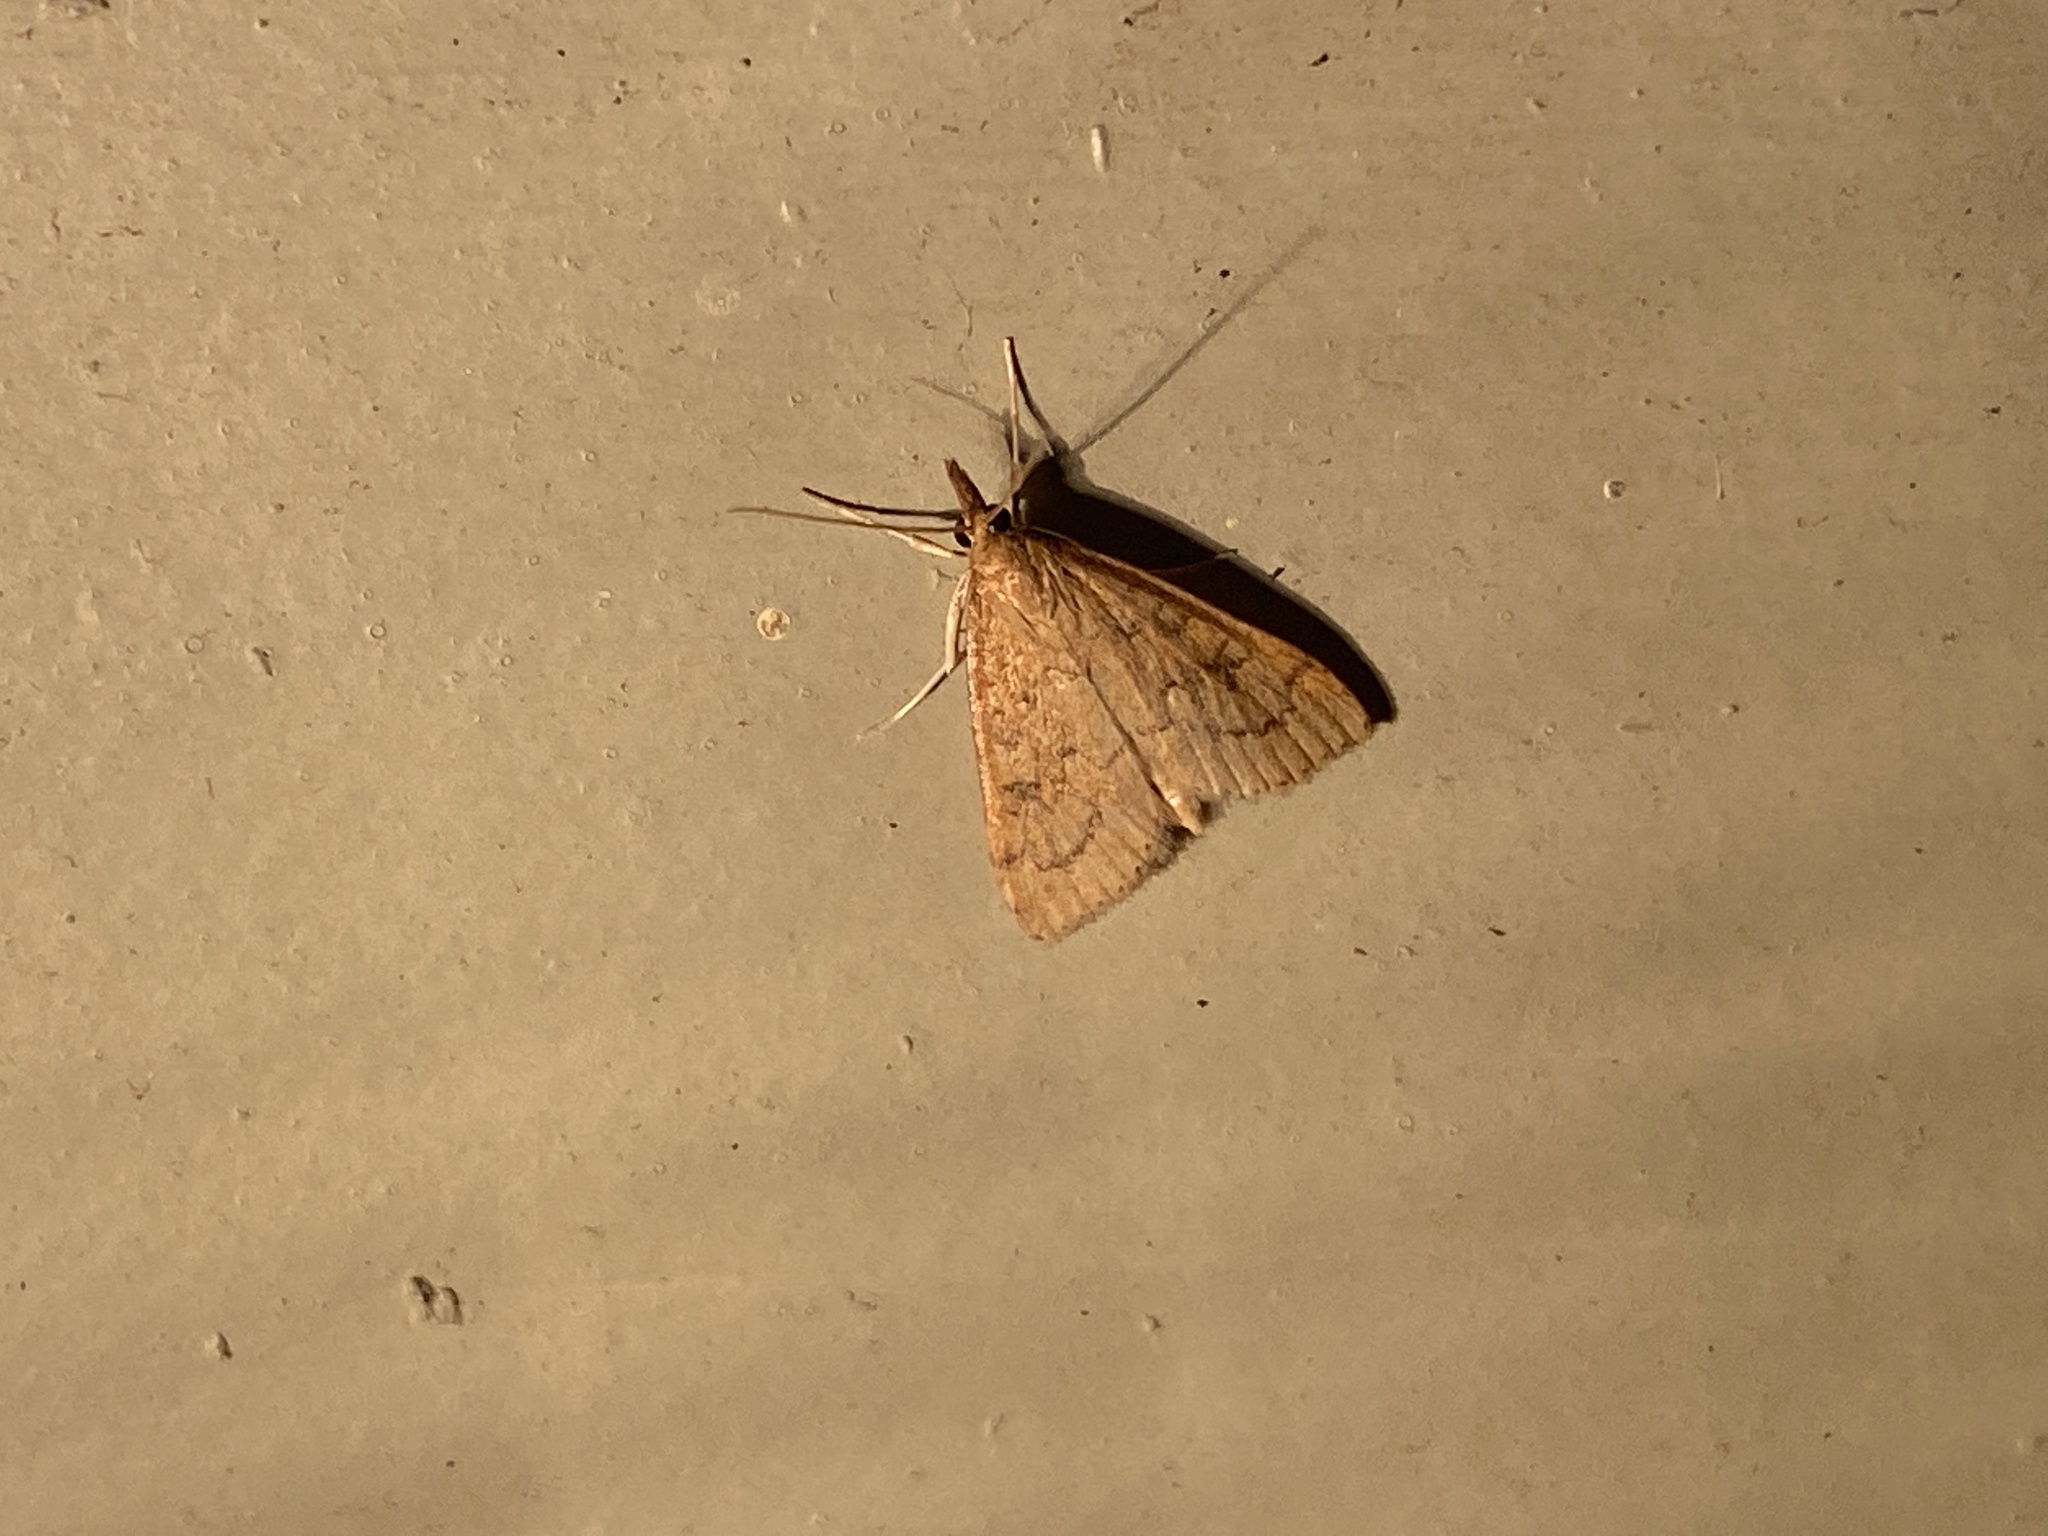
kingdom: Animalia
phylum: Arthropoda
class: Insecta
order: Lepidoptera
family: Crambidae
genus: Udea
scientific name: Udea rubigalis
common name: Celery leaftier moth
